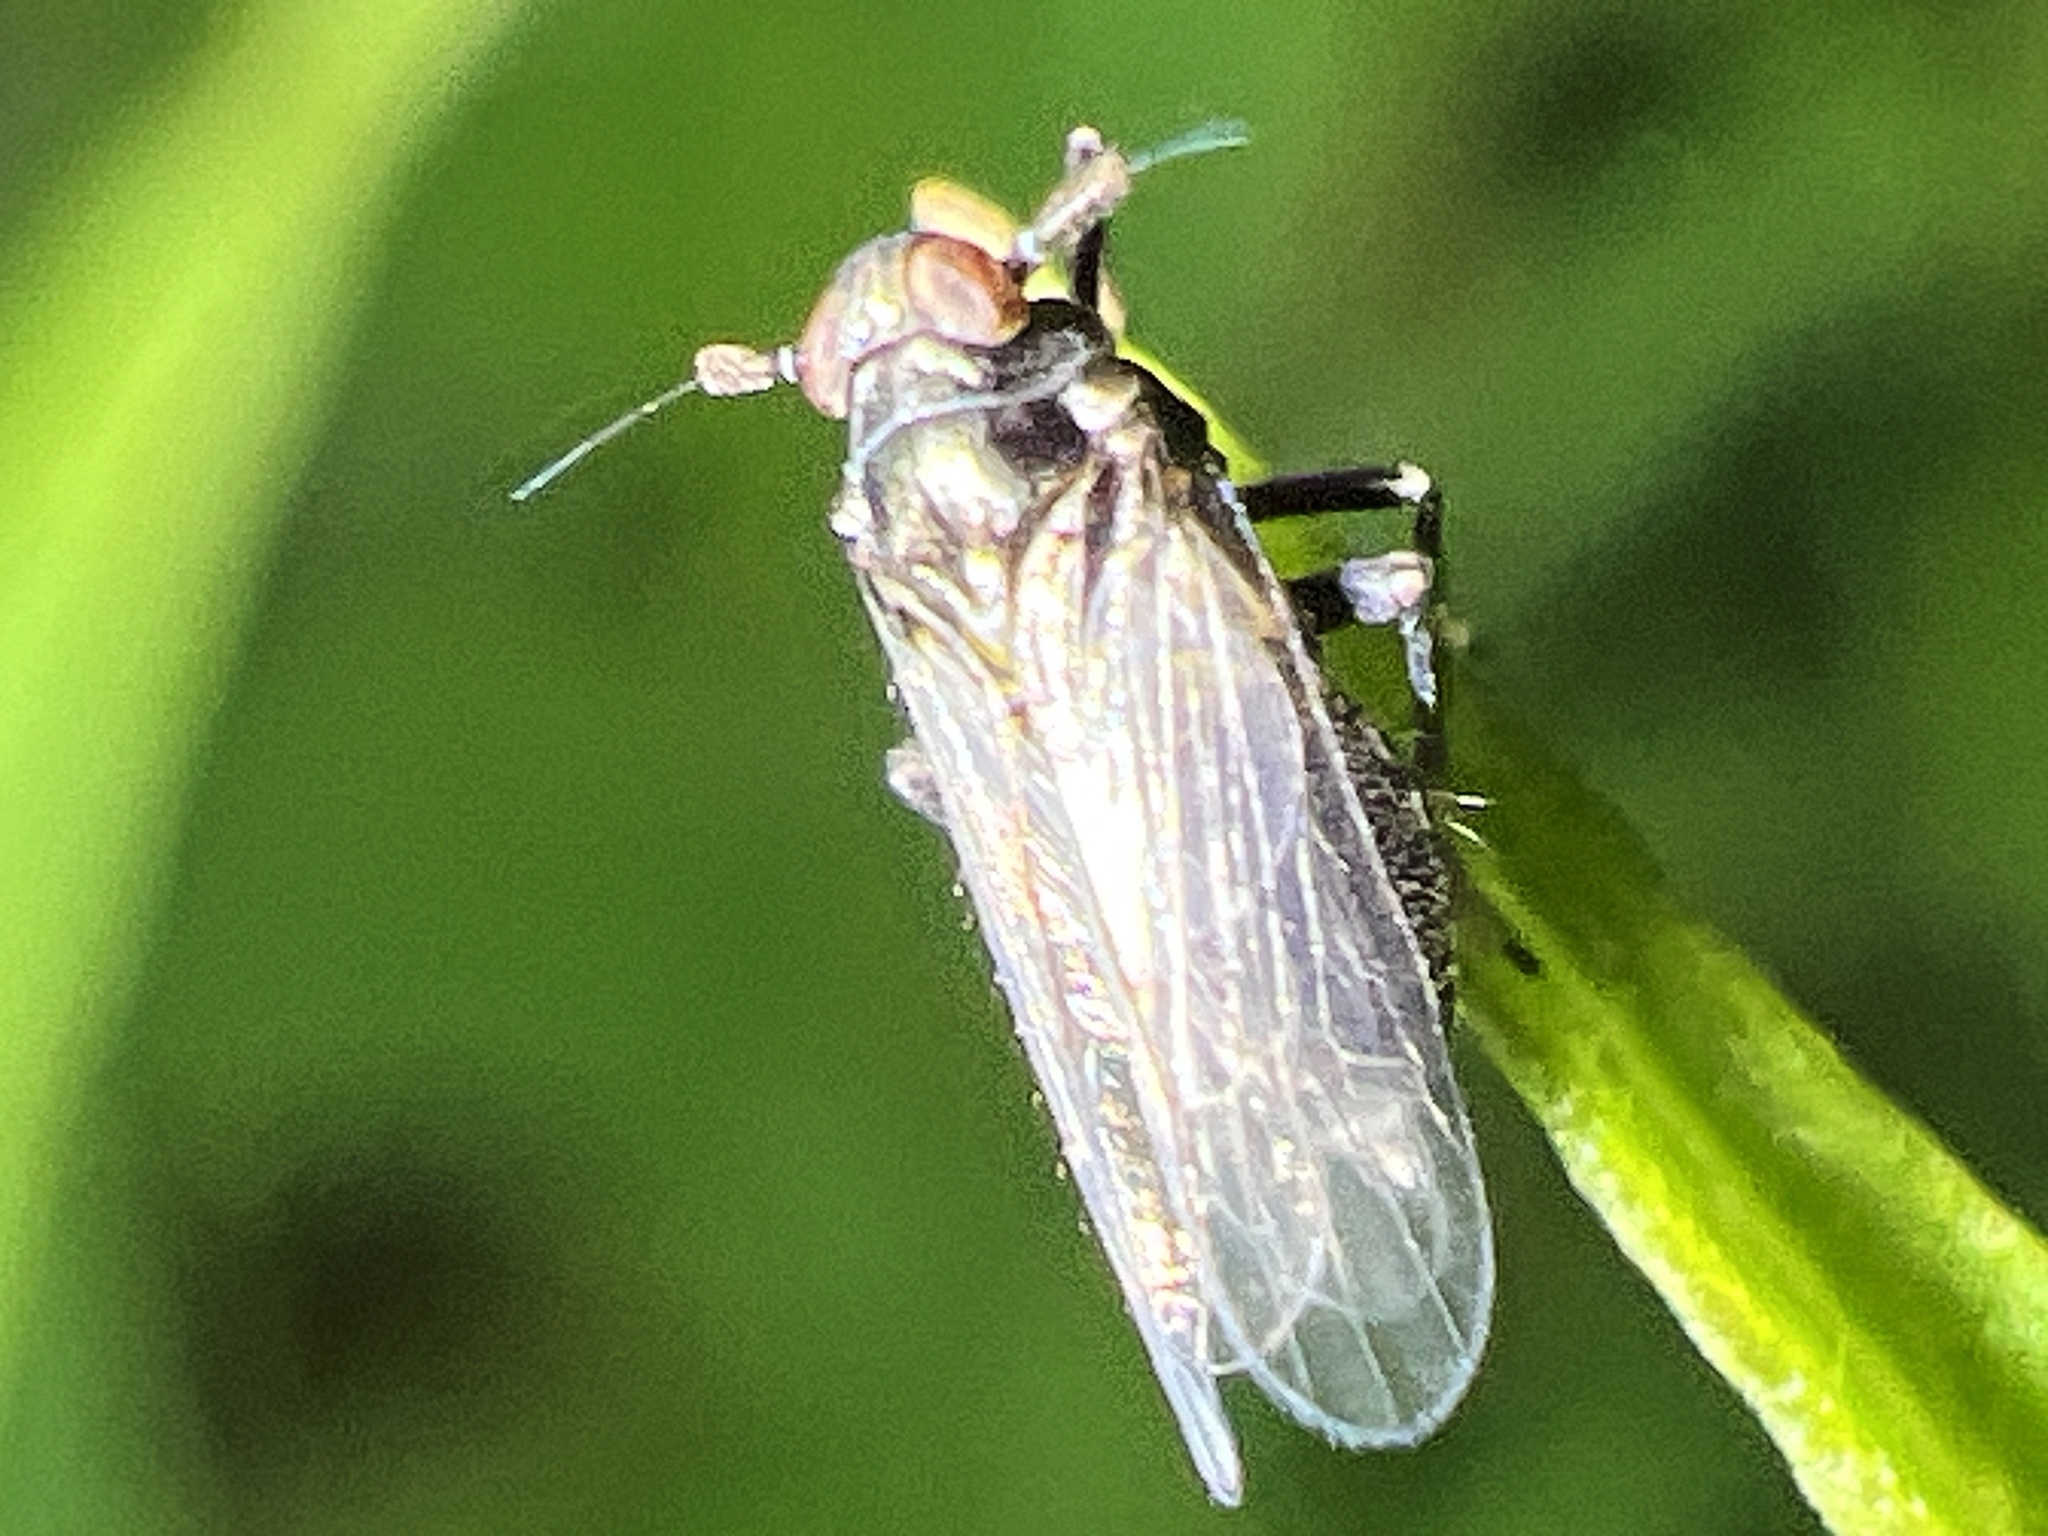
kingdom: Animalia
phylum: Arthropoda
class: Insecta
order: Hemiptera
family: Delphacidae
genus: Pissonotus
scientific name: Pissonotus brunneus
